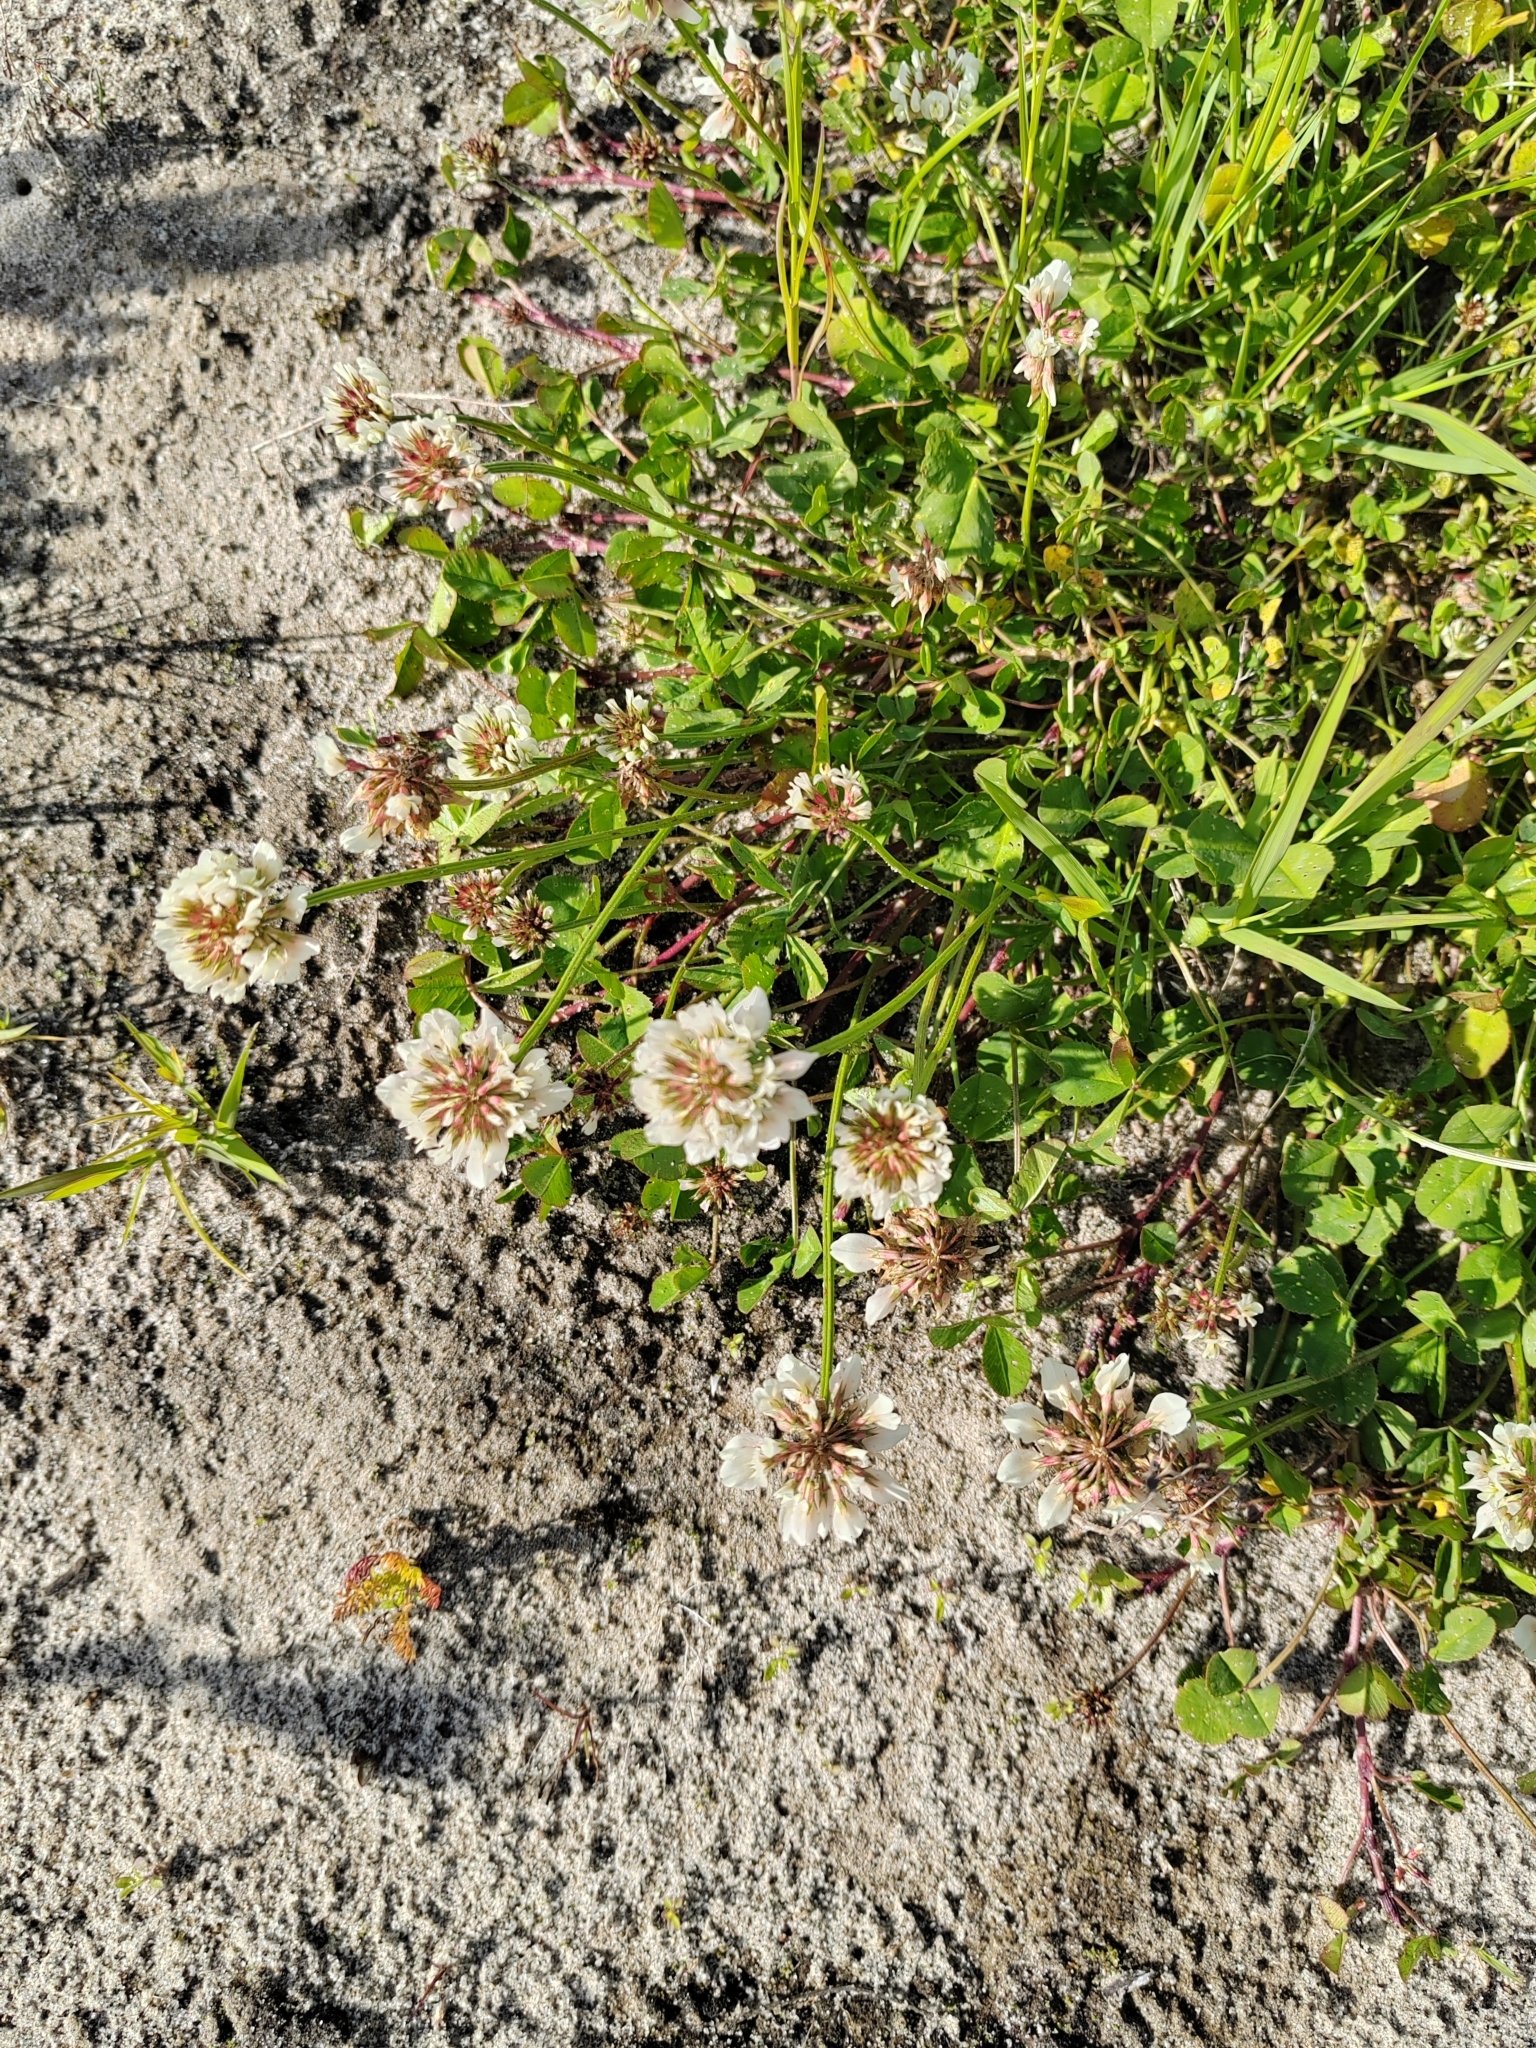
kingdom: Plantae
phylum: Tracheophyta
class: Magnoliopsida
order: Fabales
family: Fabaceae
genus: Trifolium
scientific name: Trifolium repens
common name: White clover
